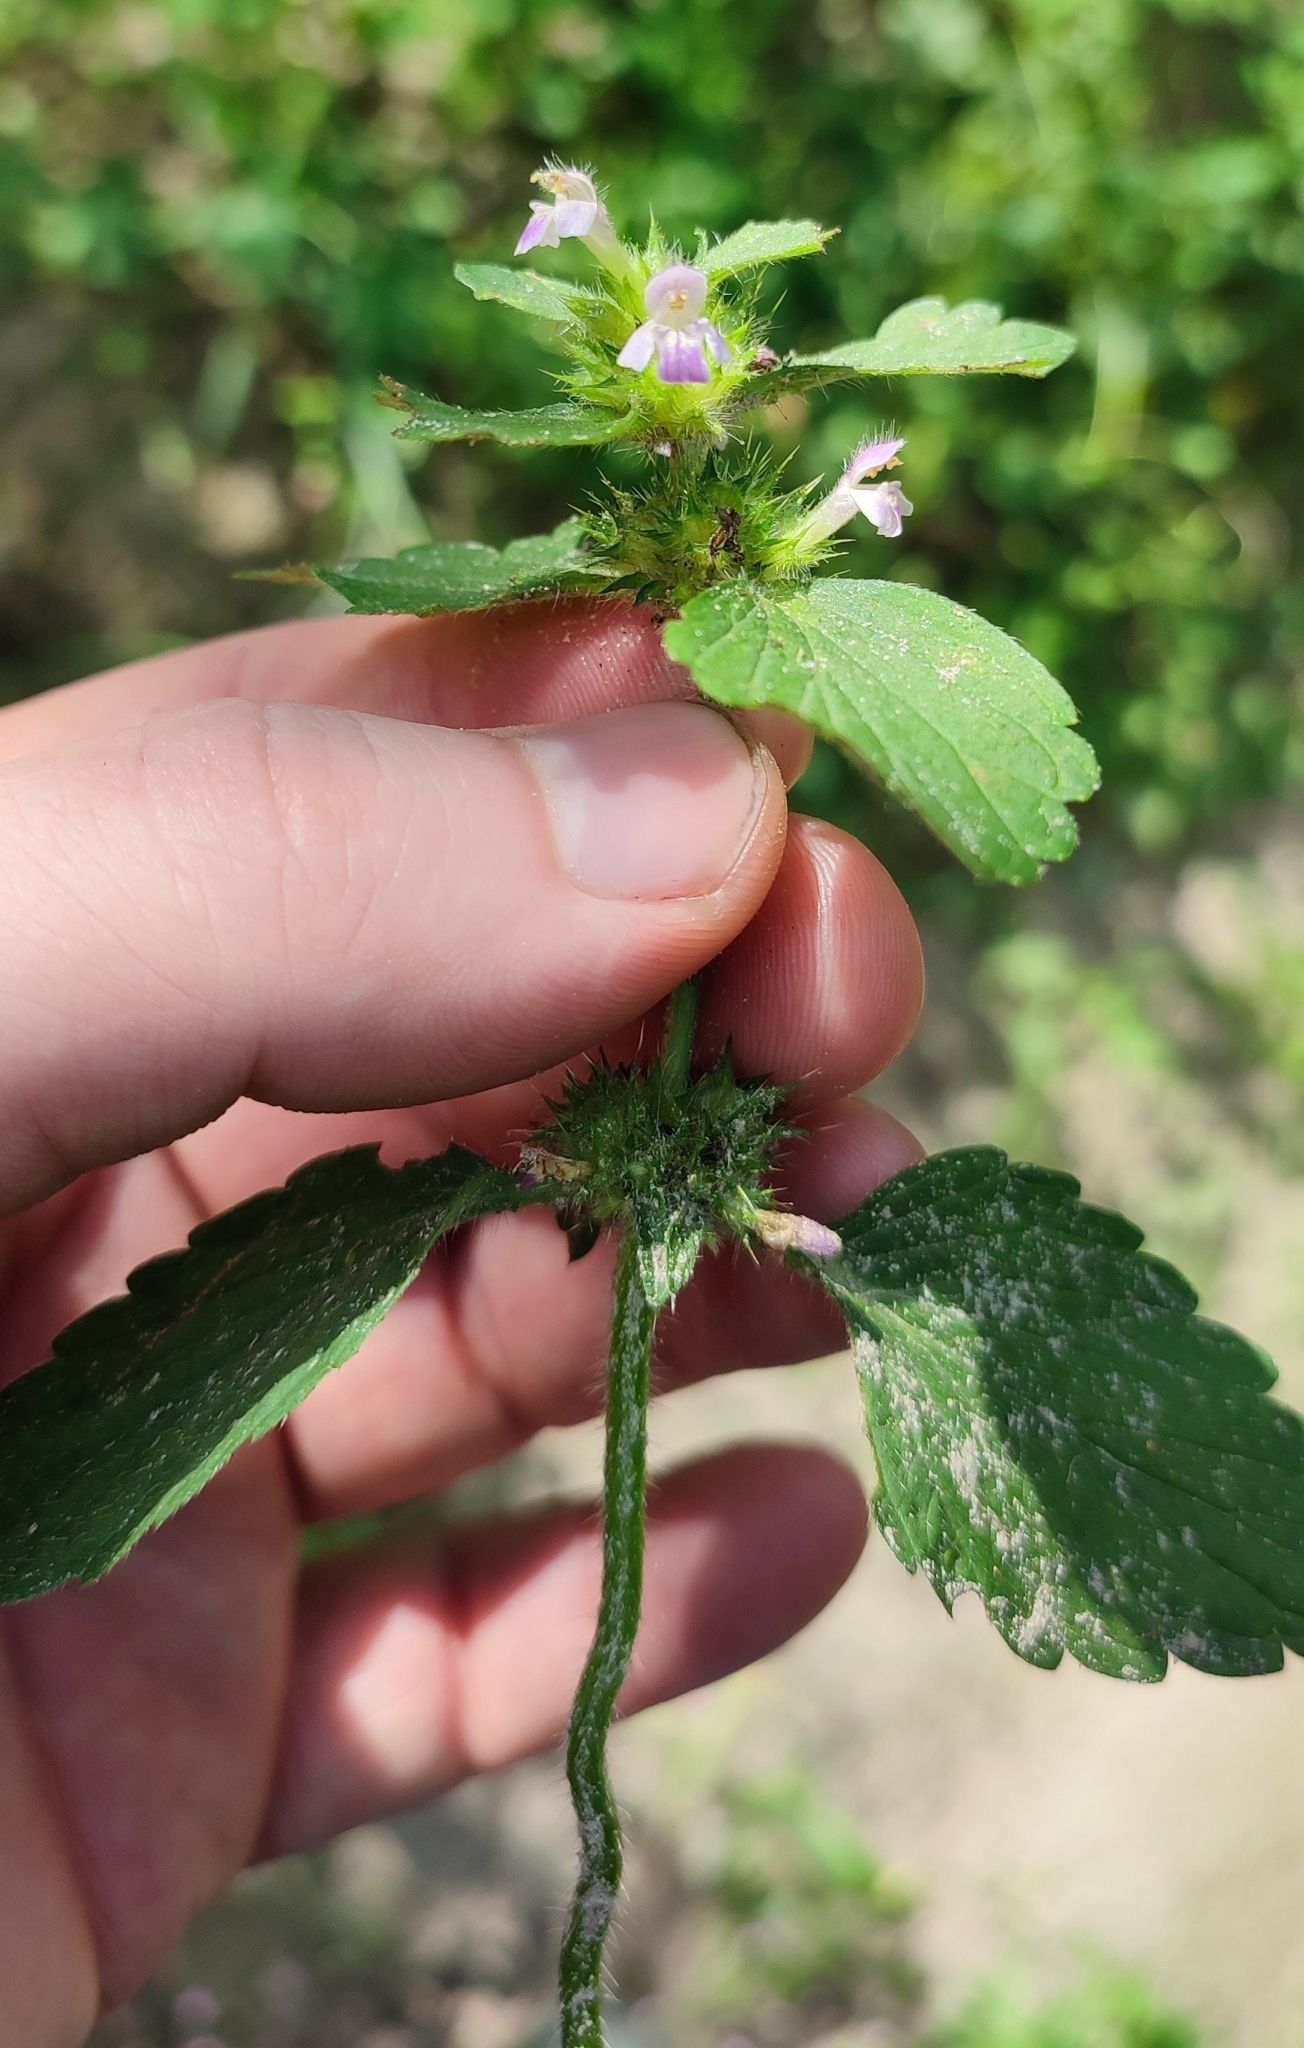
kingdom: Plantae
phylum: Tracheophyta
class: Magnoliopsida
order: Lamiales
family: Lamiaceae
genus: Galeopsis
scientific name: Galeopsis bifida
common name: Bifid hemp-nettle
